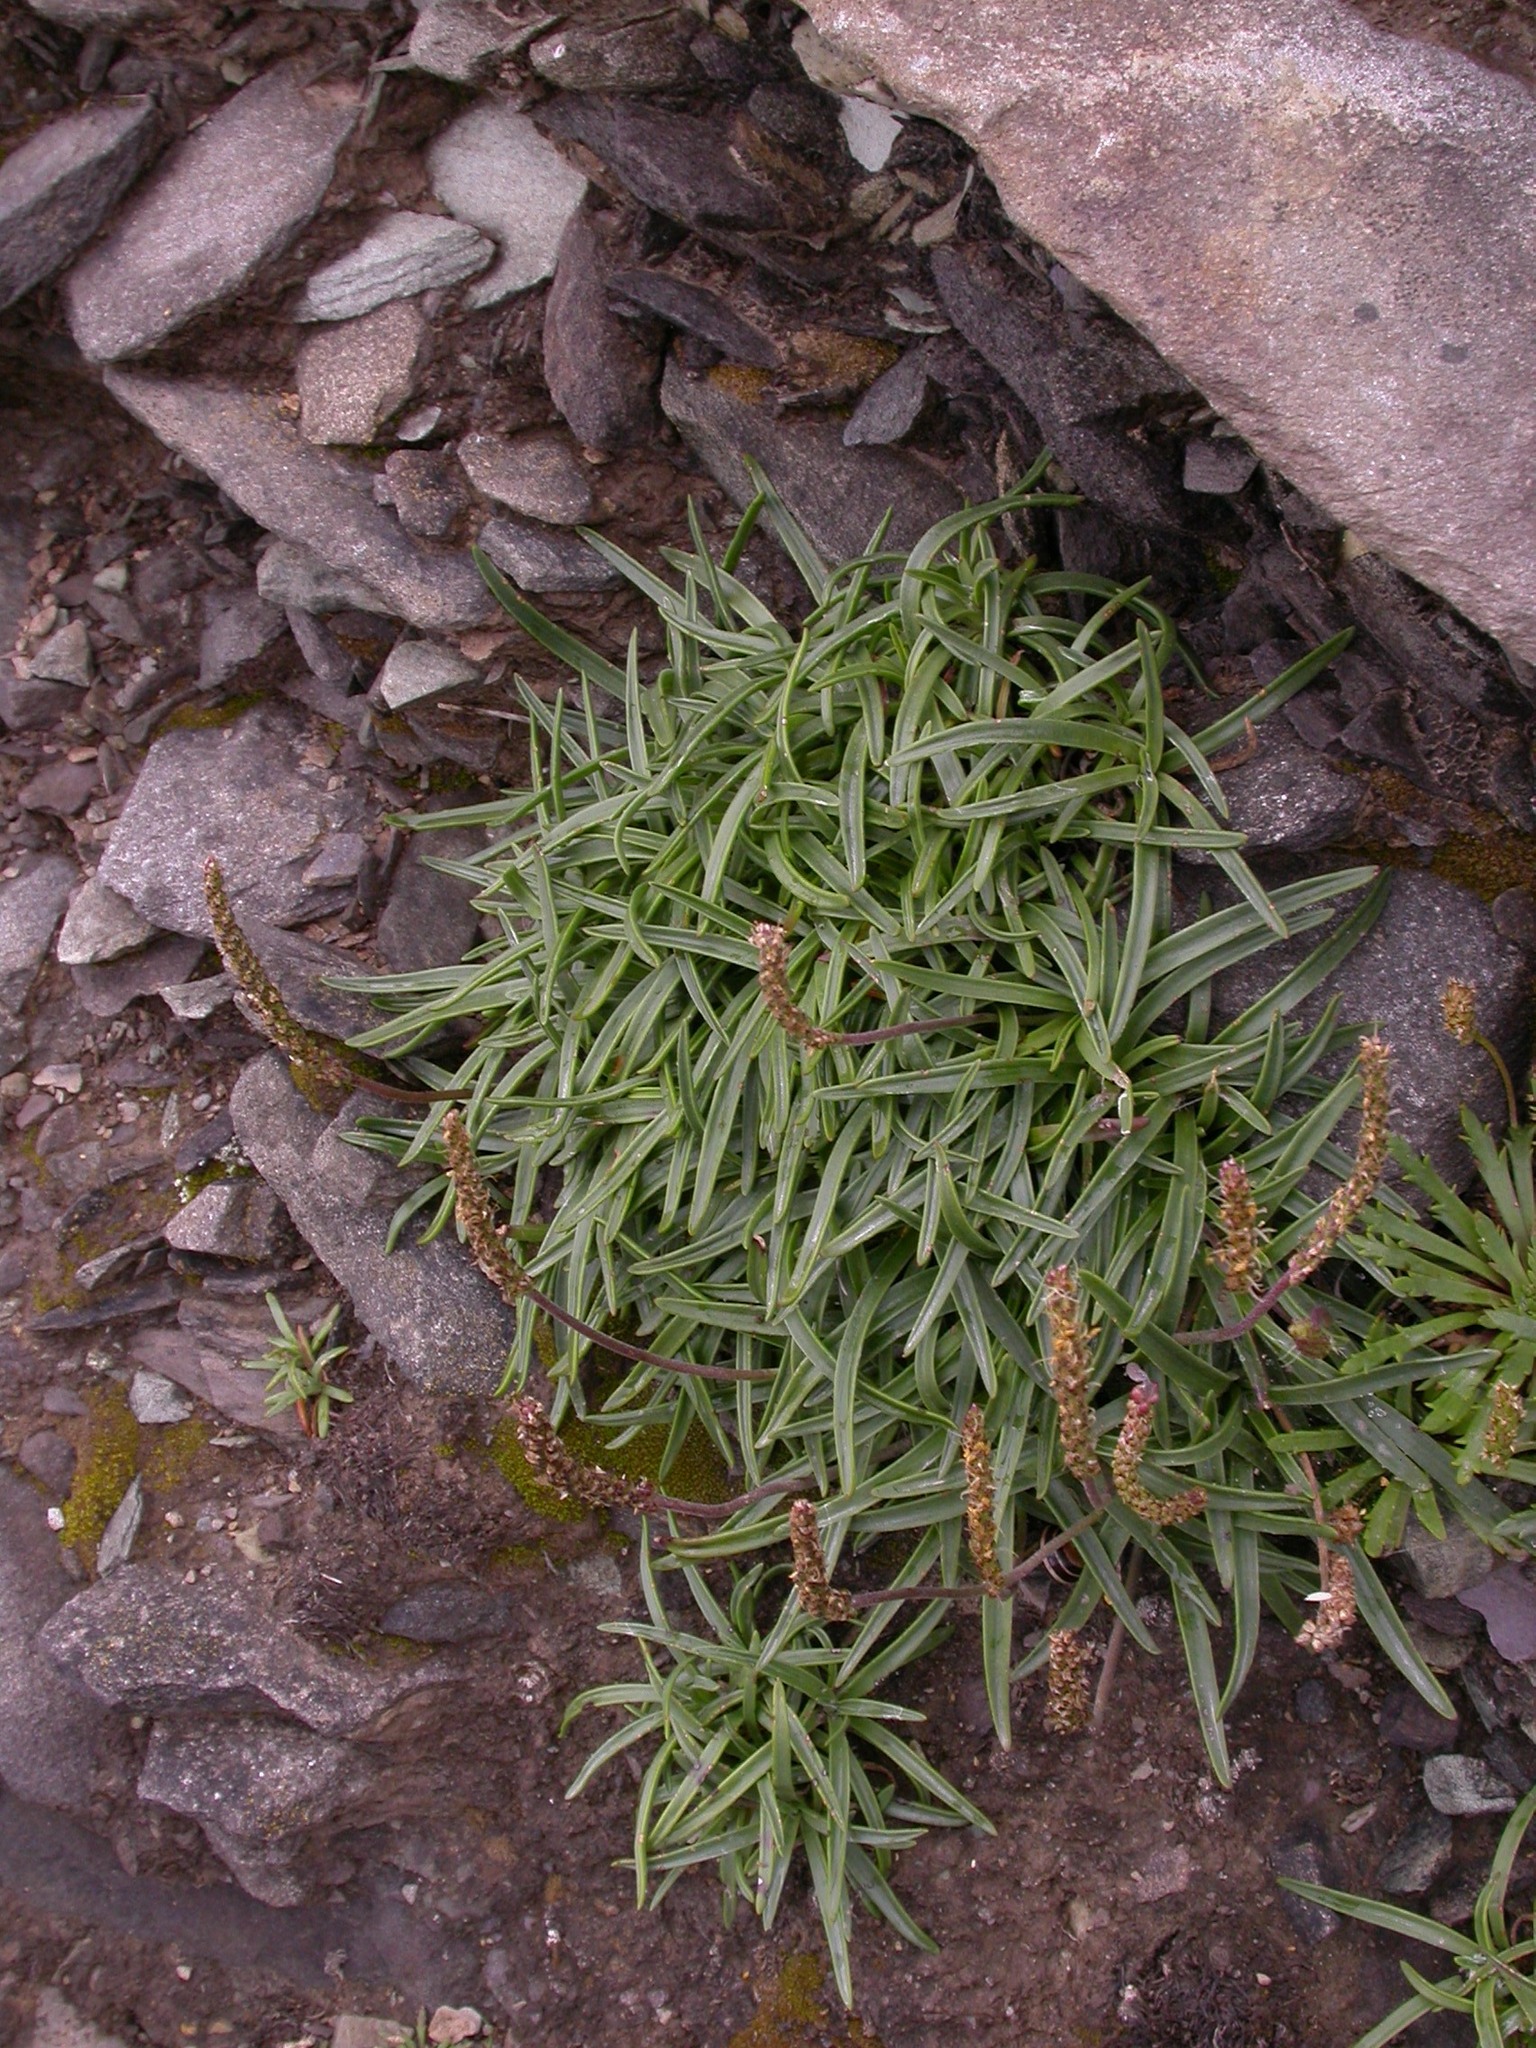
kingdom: Plantae
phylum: Tracheophyta
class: Magnoliopsida
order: Lamiales
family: Plantaginaceae
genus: Plantago
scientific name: Plantago maritima
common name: Sea plantain
